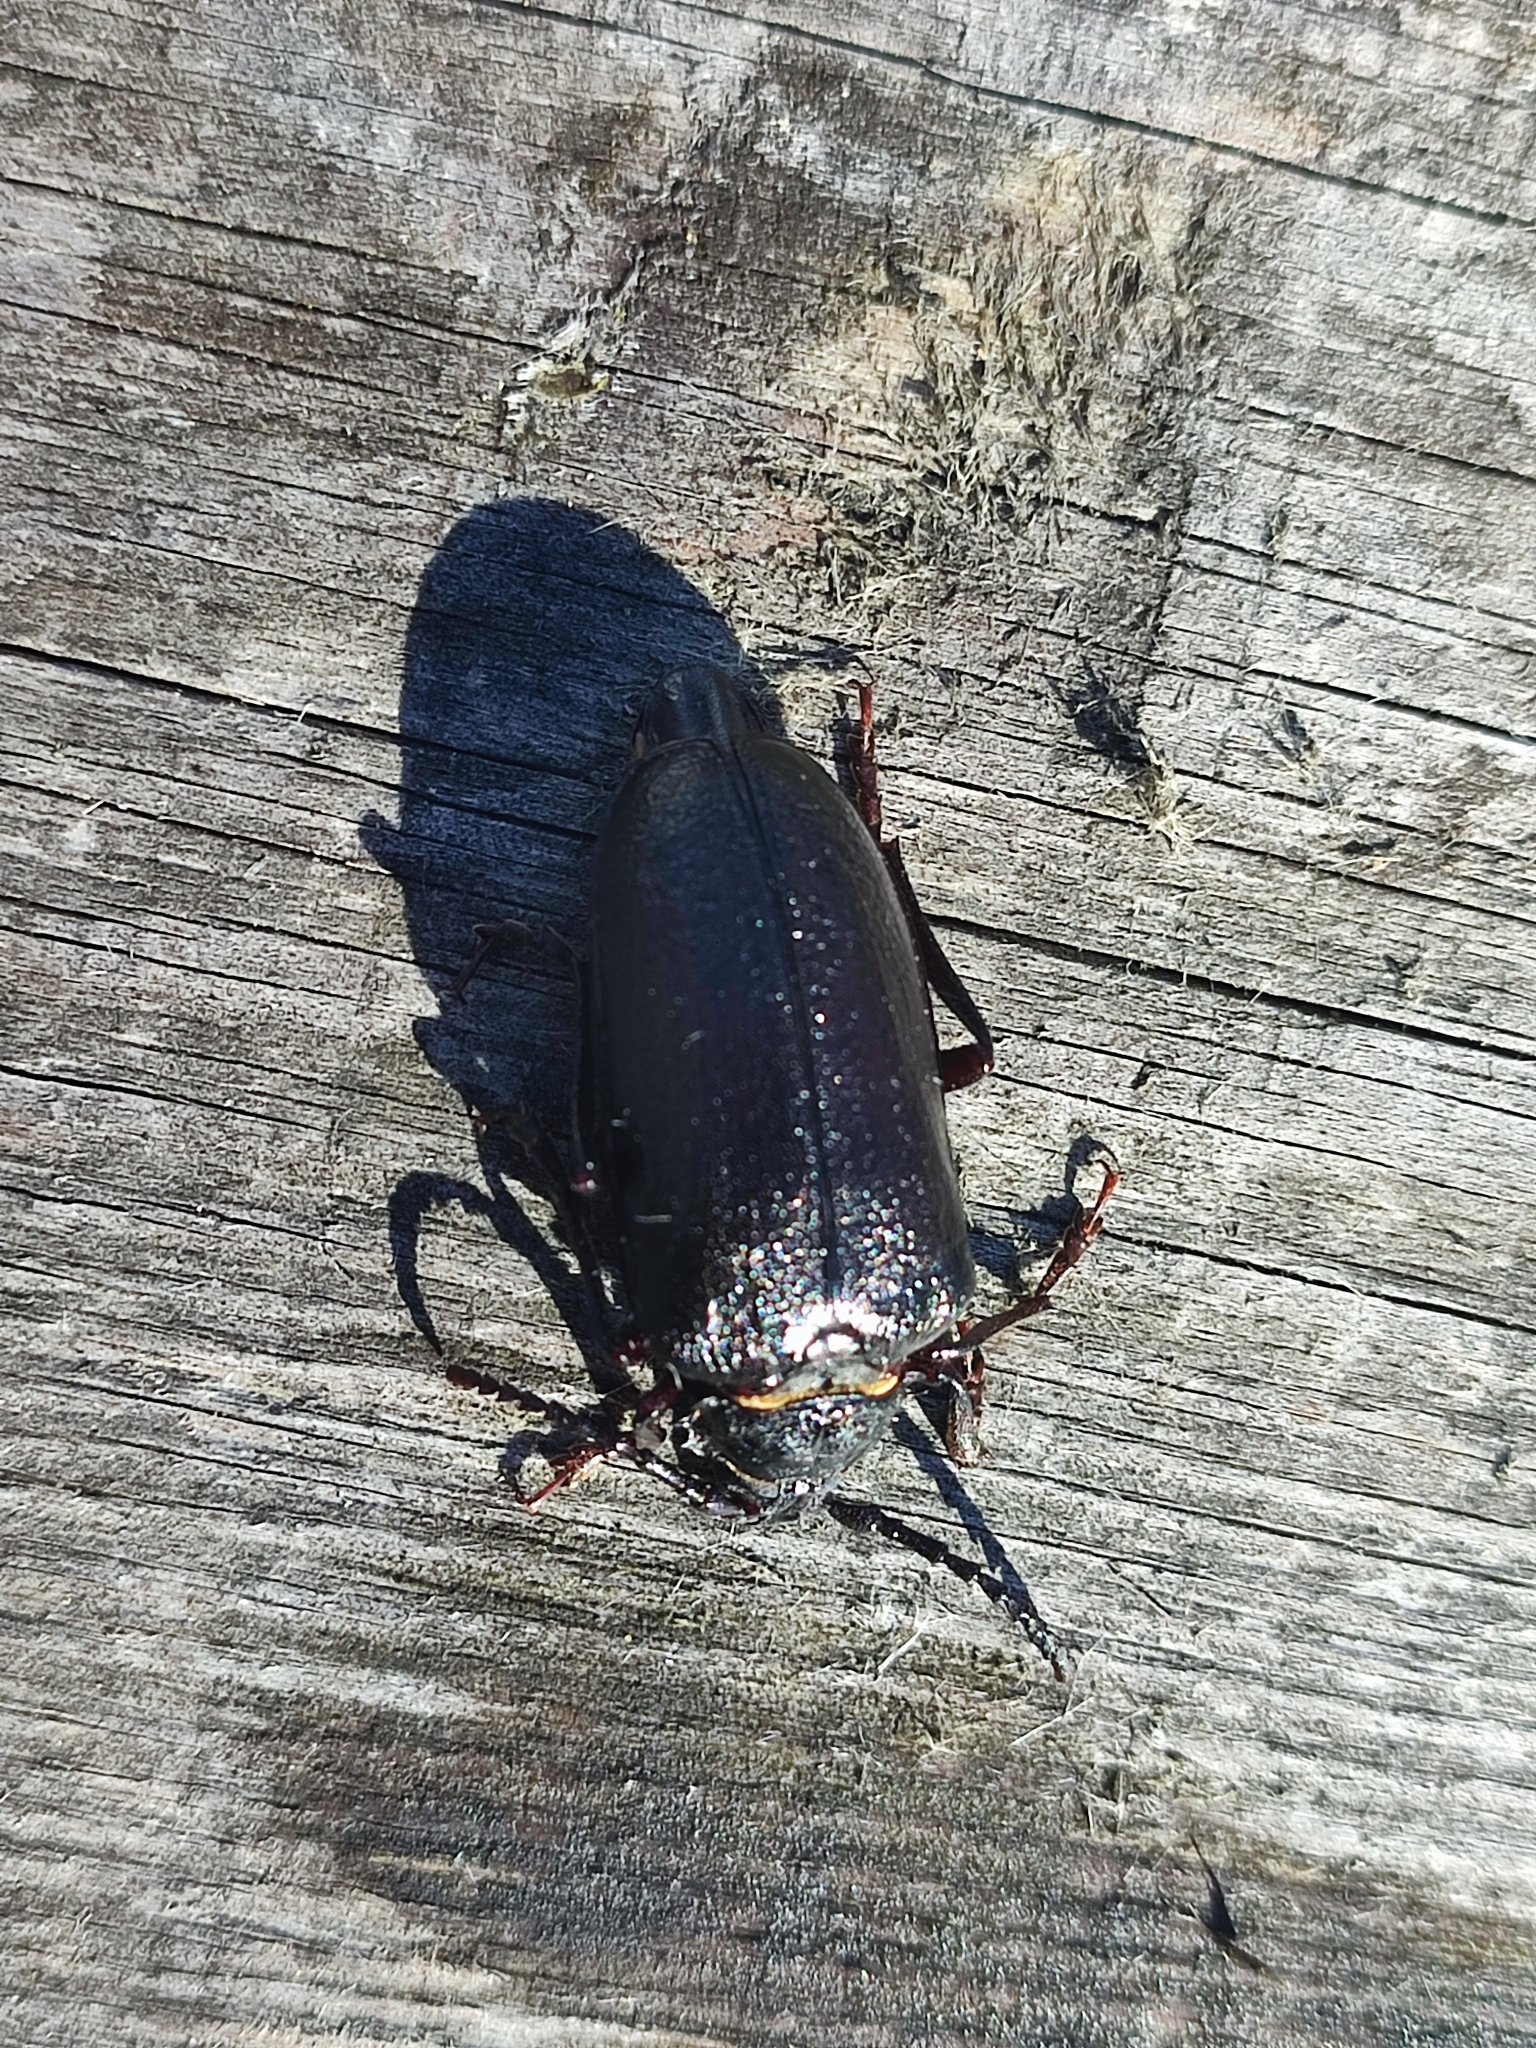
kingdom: Animalia
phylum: Arthropoda
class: Insecta
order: Coleoptera
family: Cerambycidae
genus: Prionus
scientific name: Prionus coriarius
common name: Tanner beetle
